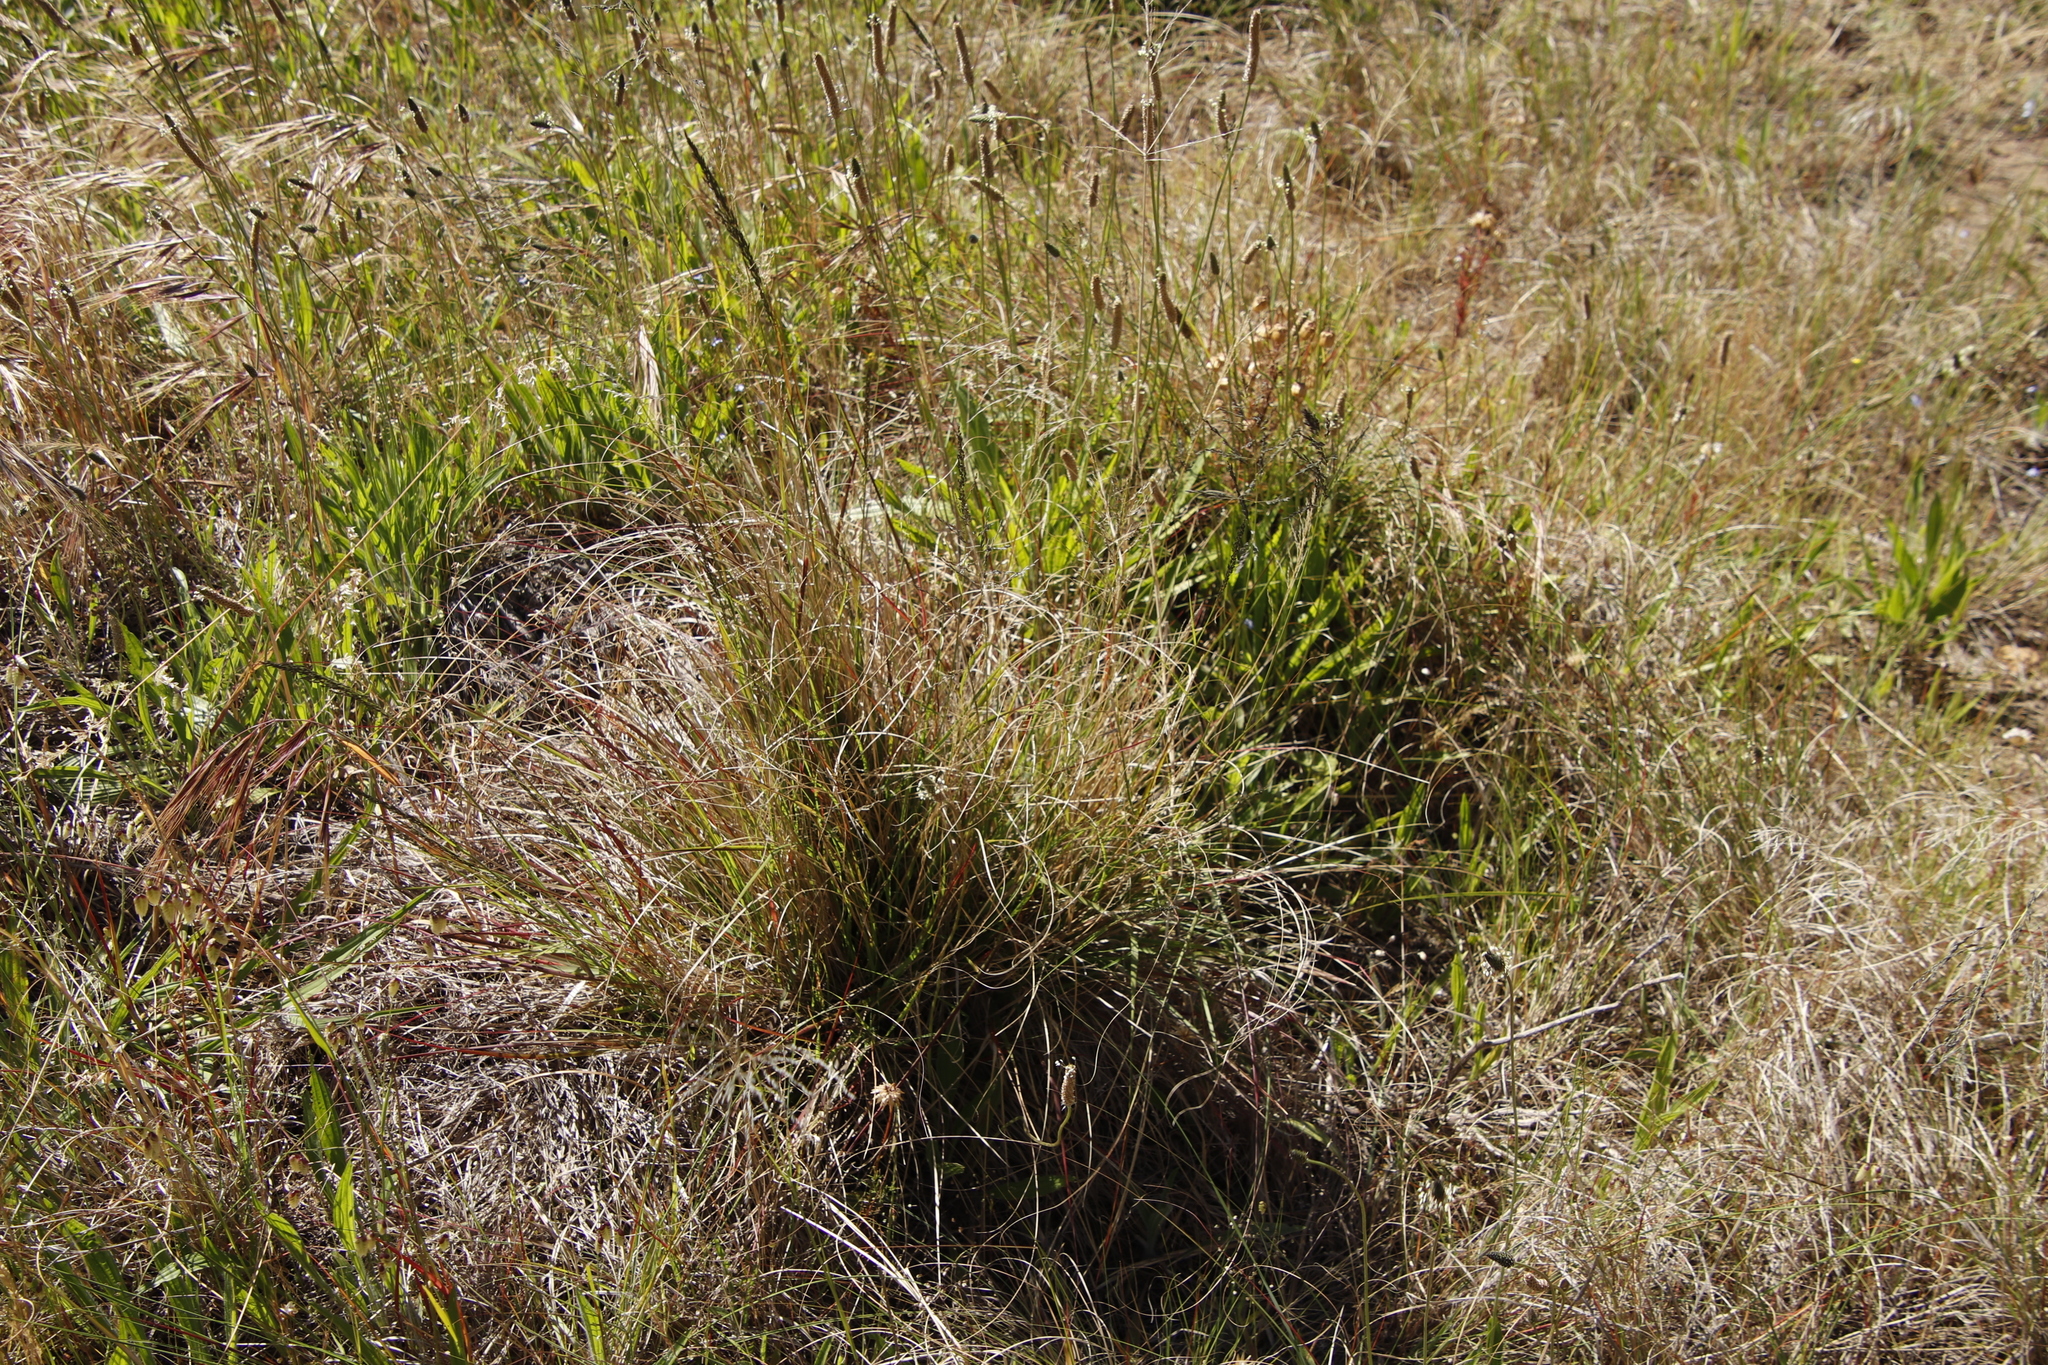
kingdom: Plantae
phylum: Tracheophyta
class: Magnoliopsida
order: Lamiales
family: Plantaginaceae
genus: Plantago
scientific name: Plantago lanceolata
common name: Ribwort plantain
